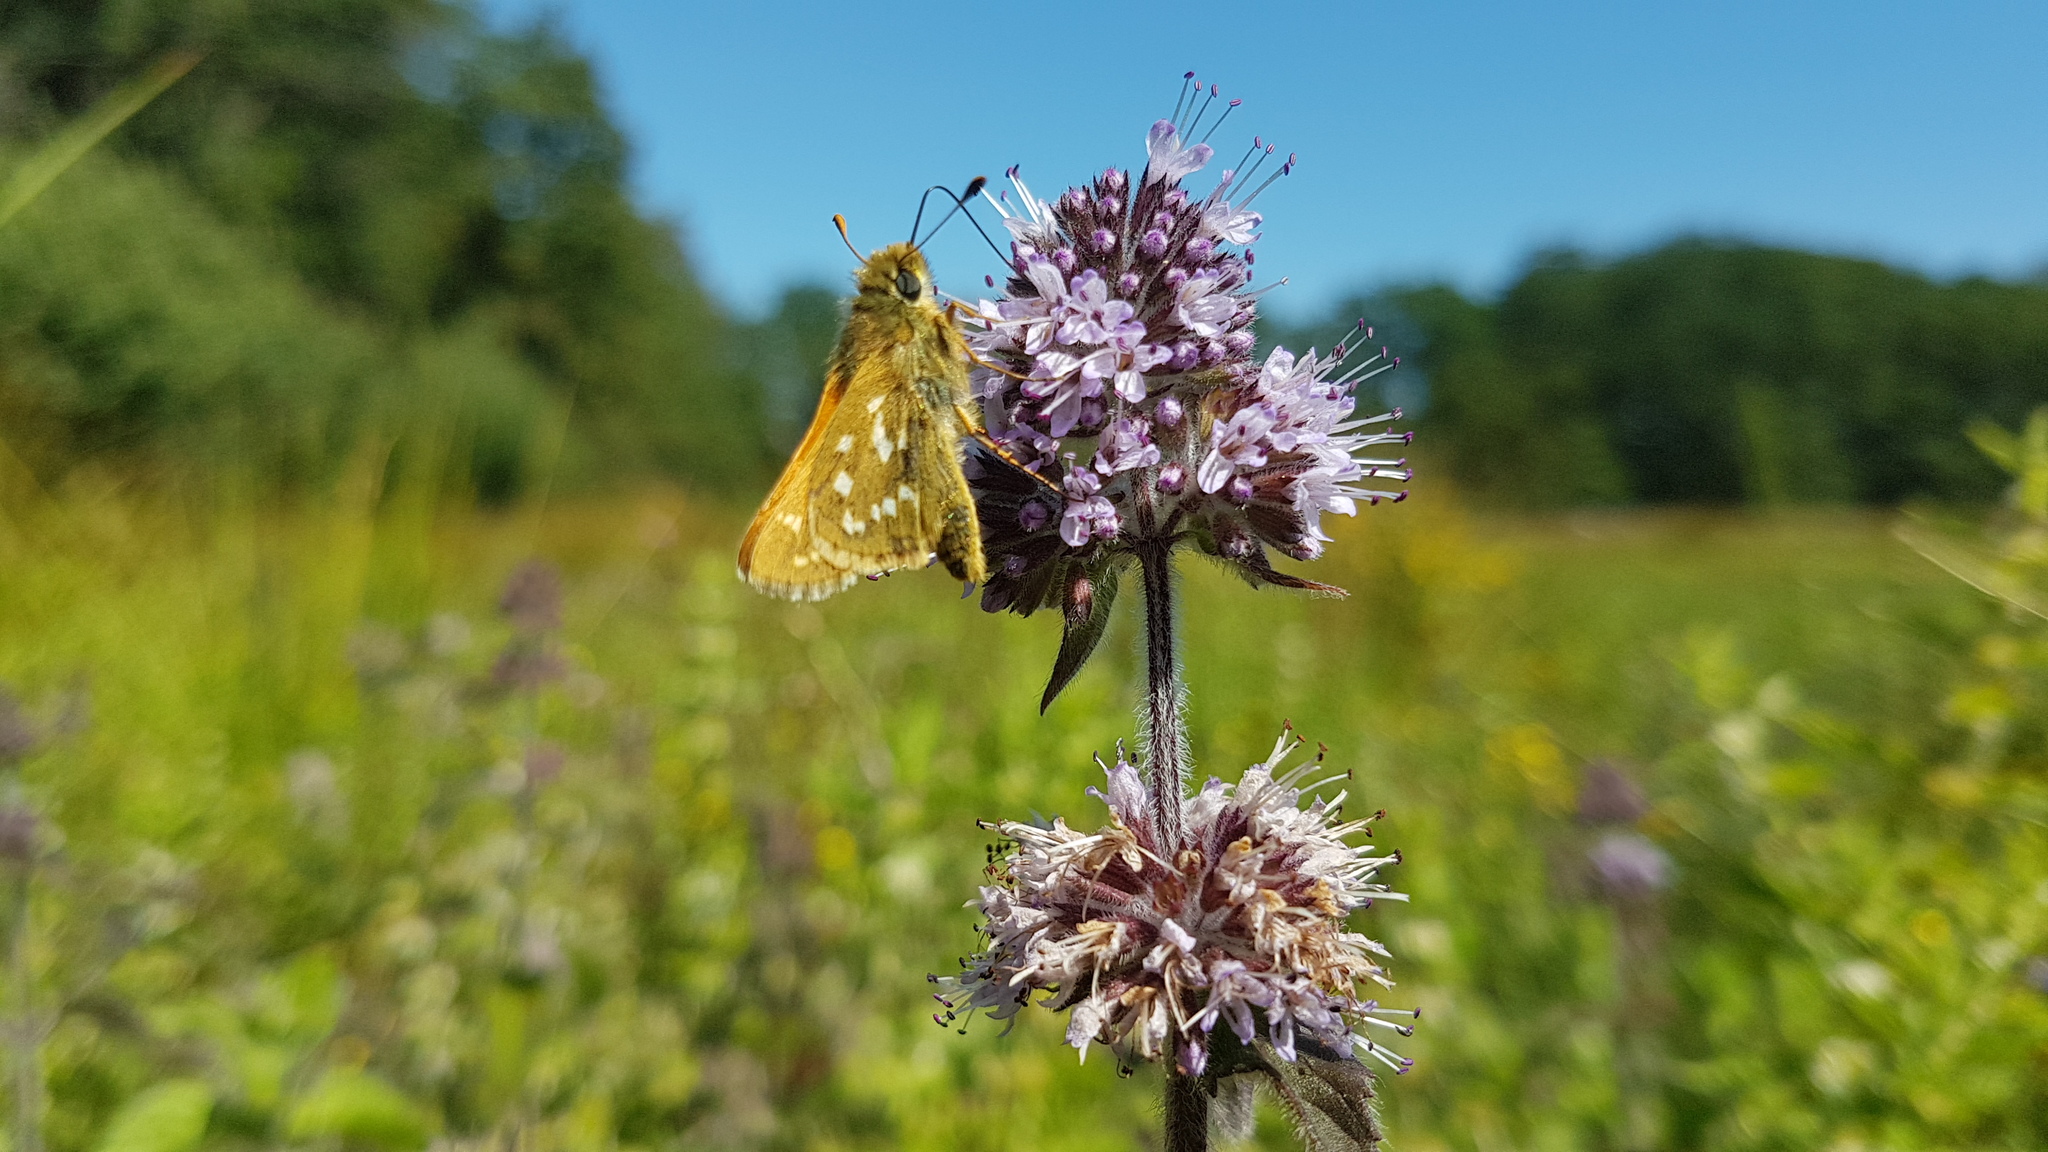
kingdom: Animalia
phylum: Arthropoda
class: Insecta
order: Lepidoptera
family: Hesperiidae
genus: Hesperia
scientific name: Hesperia comma
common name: Common branded skipper
